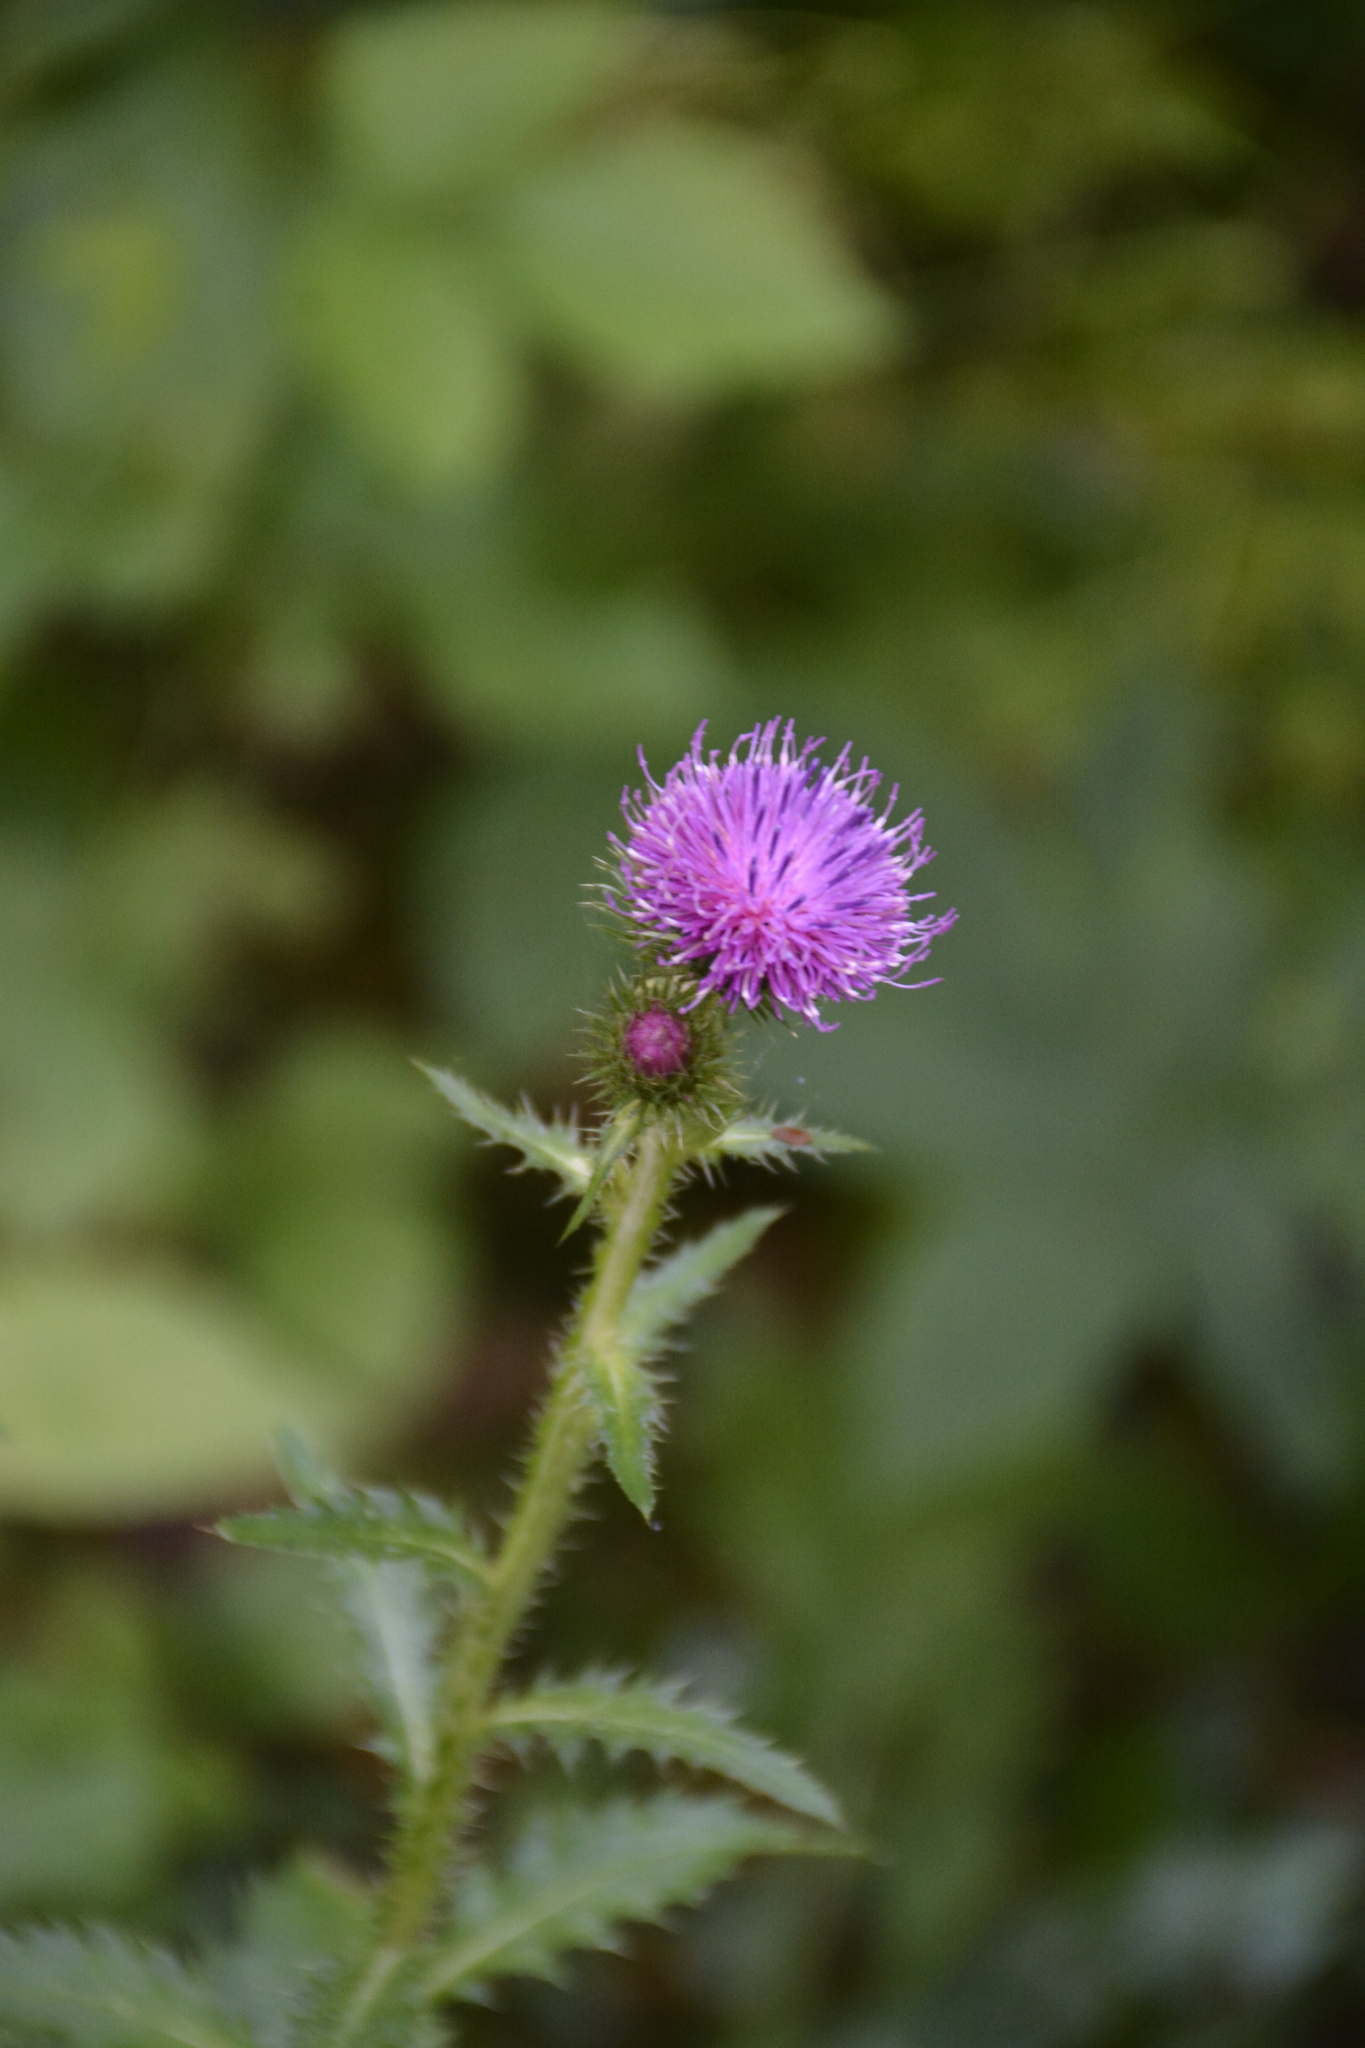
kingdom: Plantae
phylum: Tracheophyta
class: Magnoliopsida
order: Asterales
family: Asteraceae
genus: Carduus
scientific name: Carduus crispus
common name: Welted thistle
